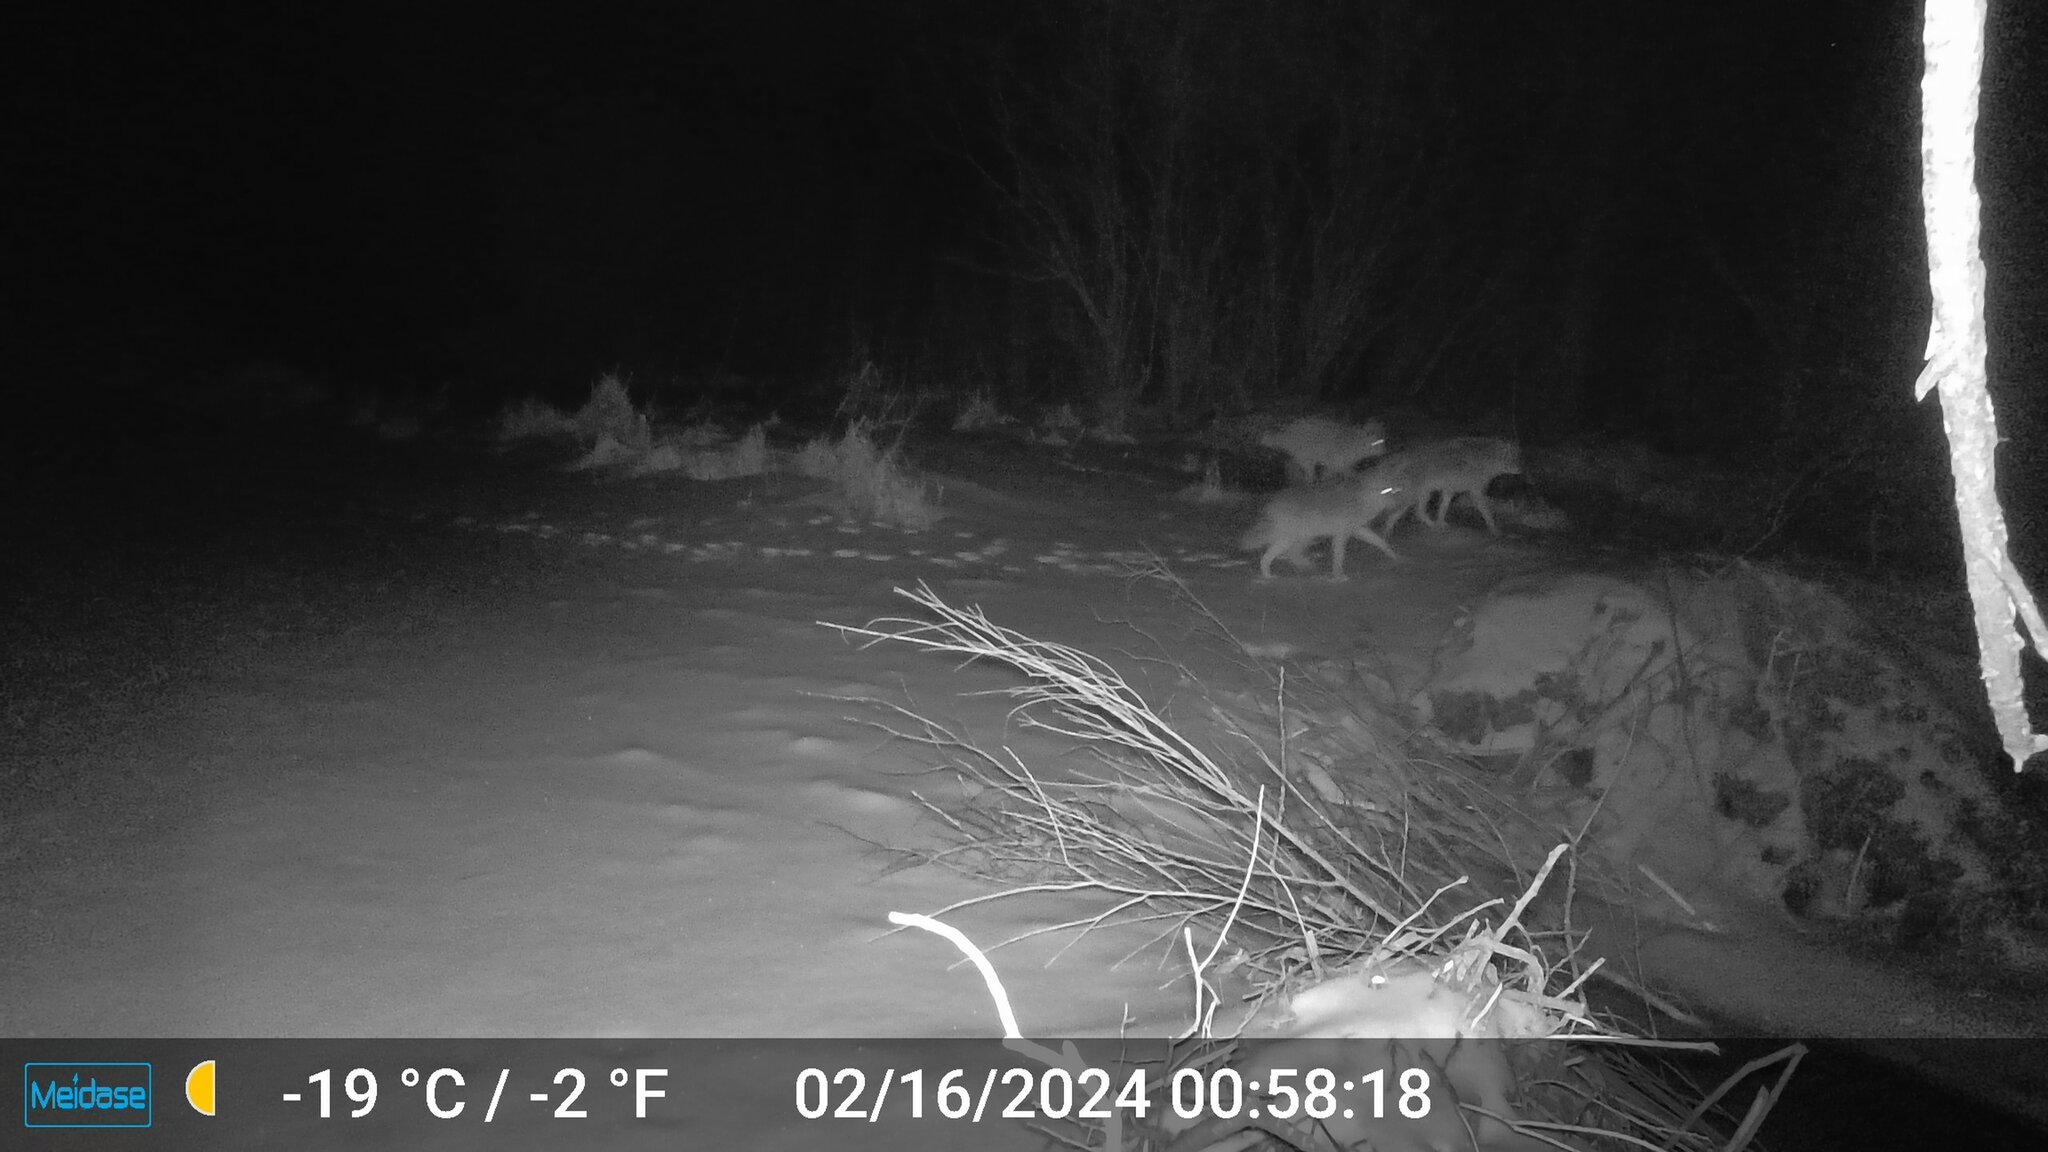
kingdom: Animalia
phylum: Chordata
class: Mammalia
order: Carnivora
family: Canidae
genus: Canis
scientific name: Canis latrans
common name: Coyote
